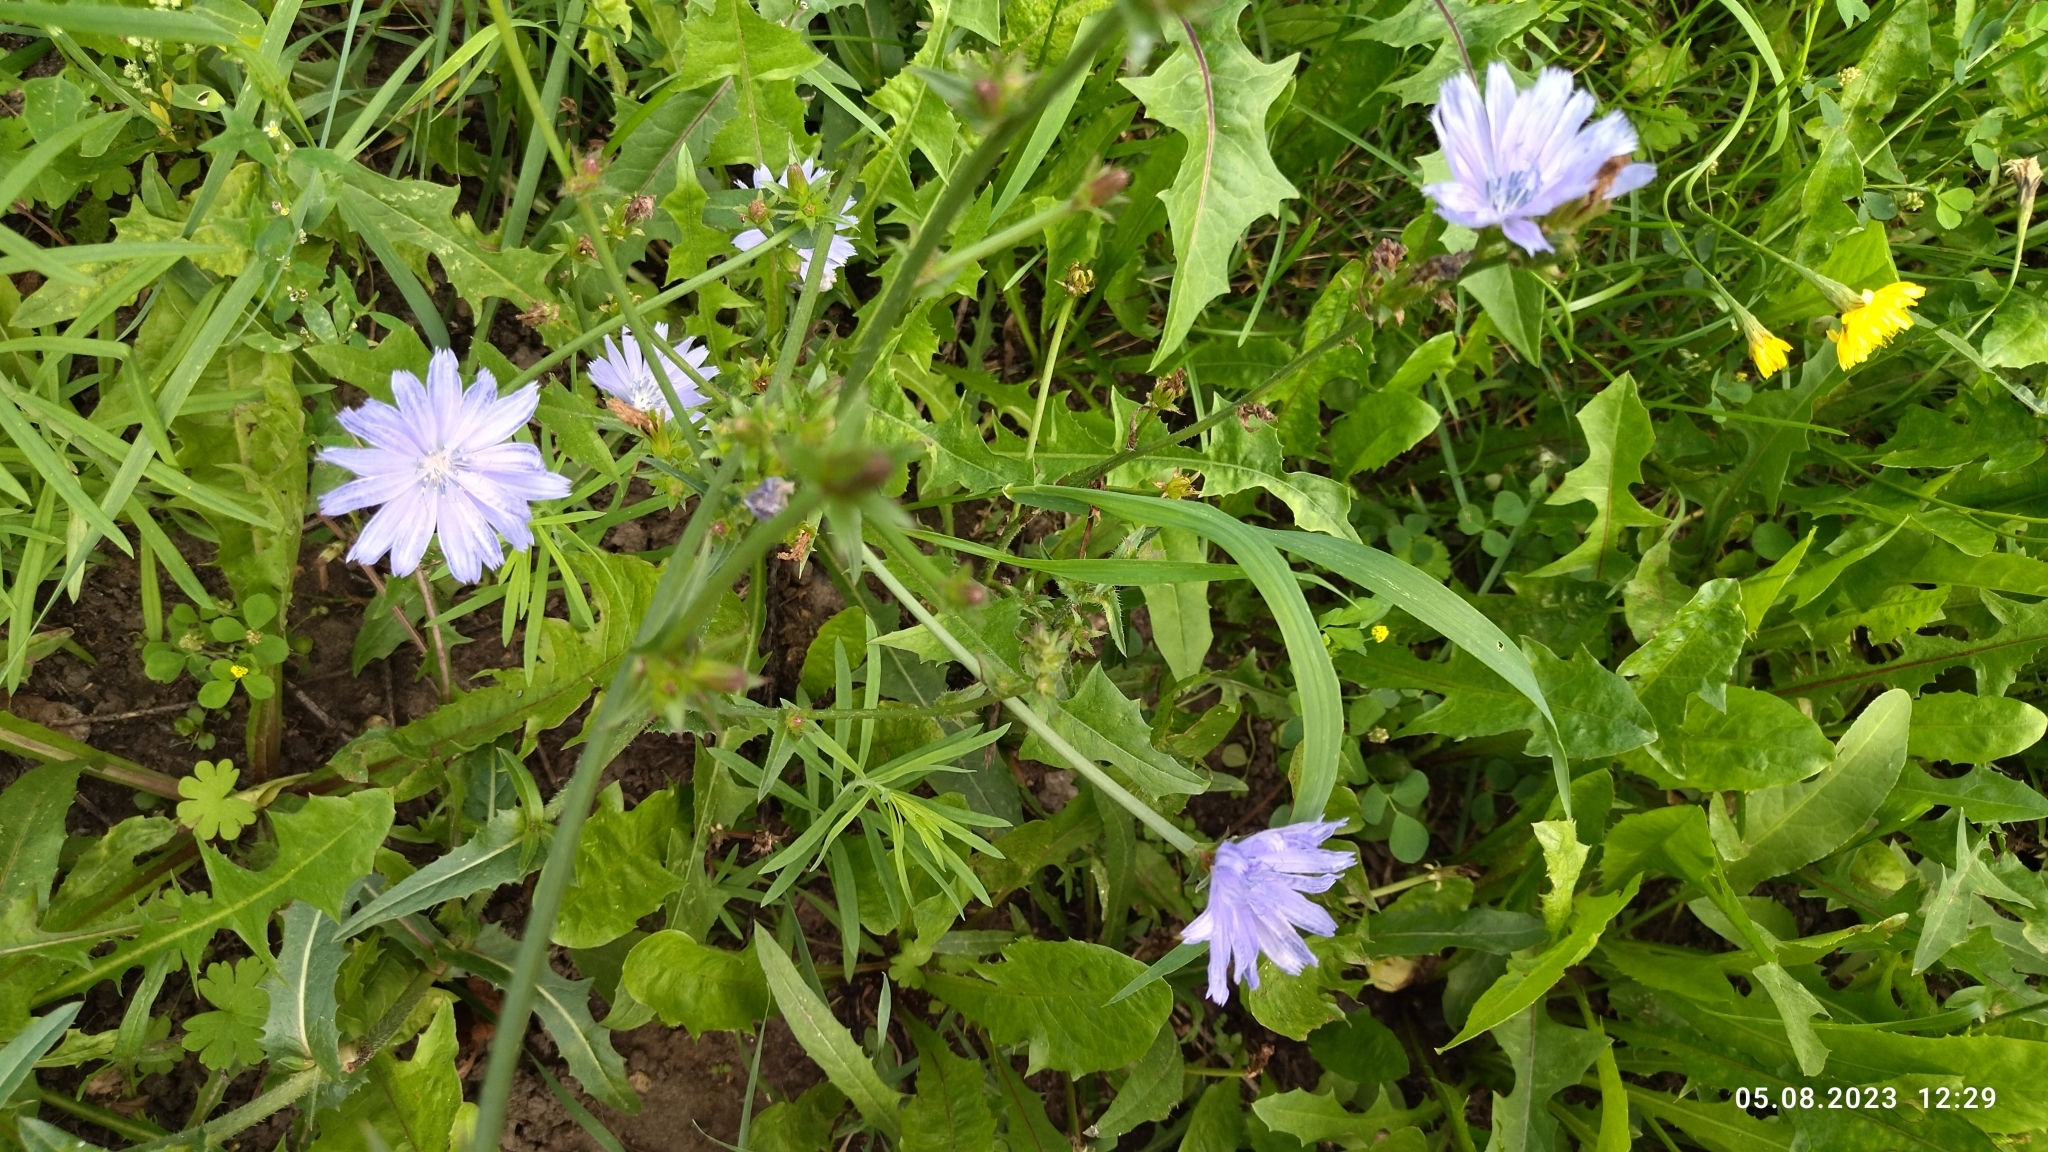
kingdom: Plantae
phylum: Tracheophyta
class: Magnoliopsida
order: Asterales
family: Asteraceae
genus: Cichorium
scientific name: Cichorium intybus
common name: Chicory
